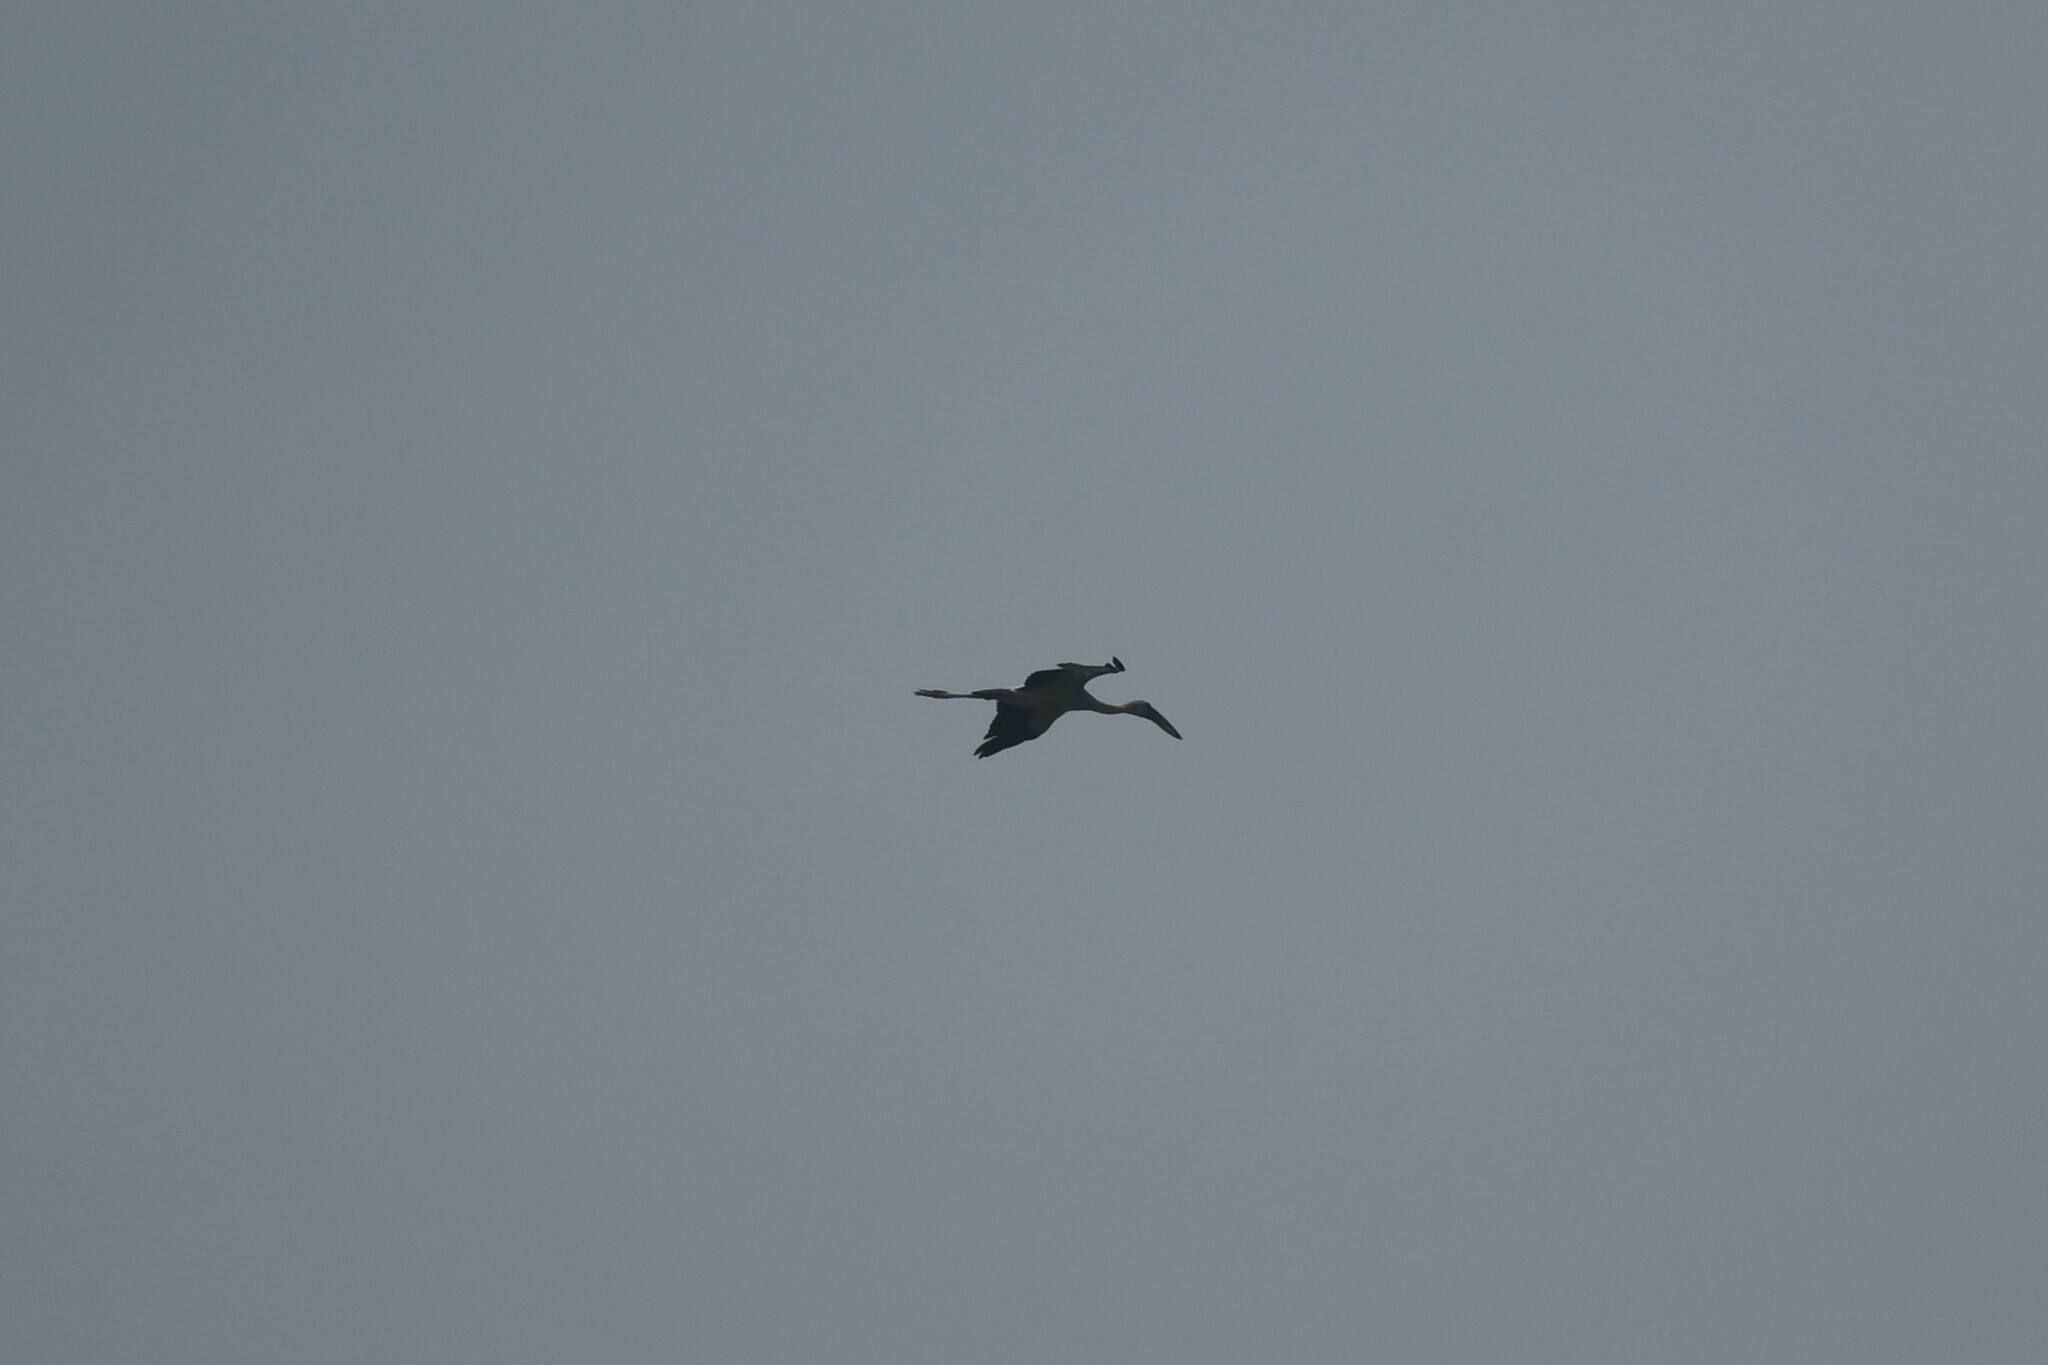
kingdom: Animalia
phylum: Chordata
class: Aves
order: Ciconiiformes
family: Ciconiidae
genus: Anastomus
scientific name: Anastomus oscitans
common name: Asian openbill
